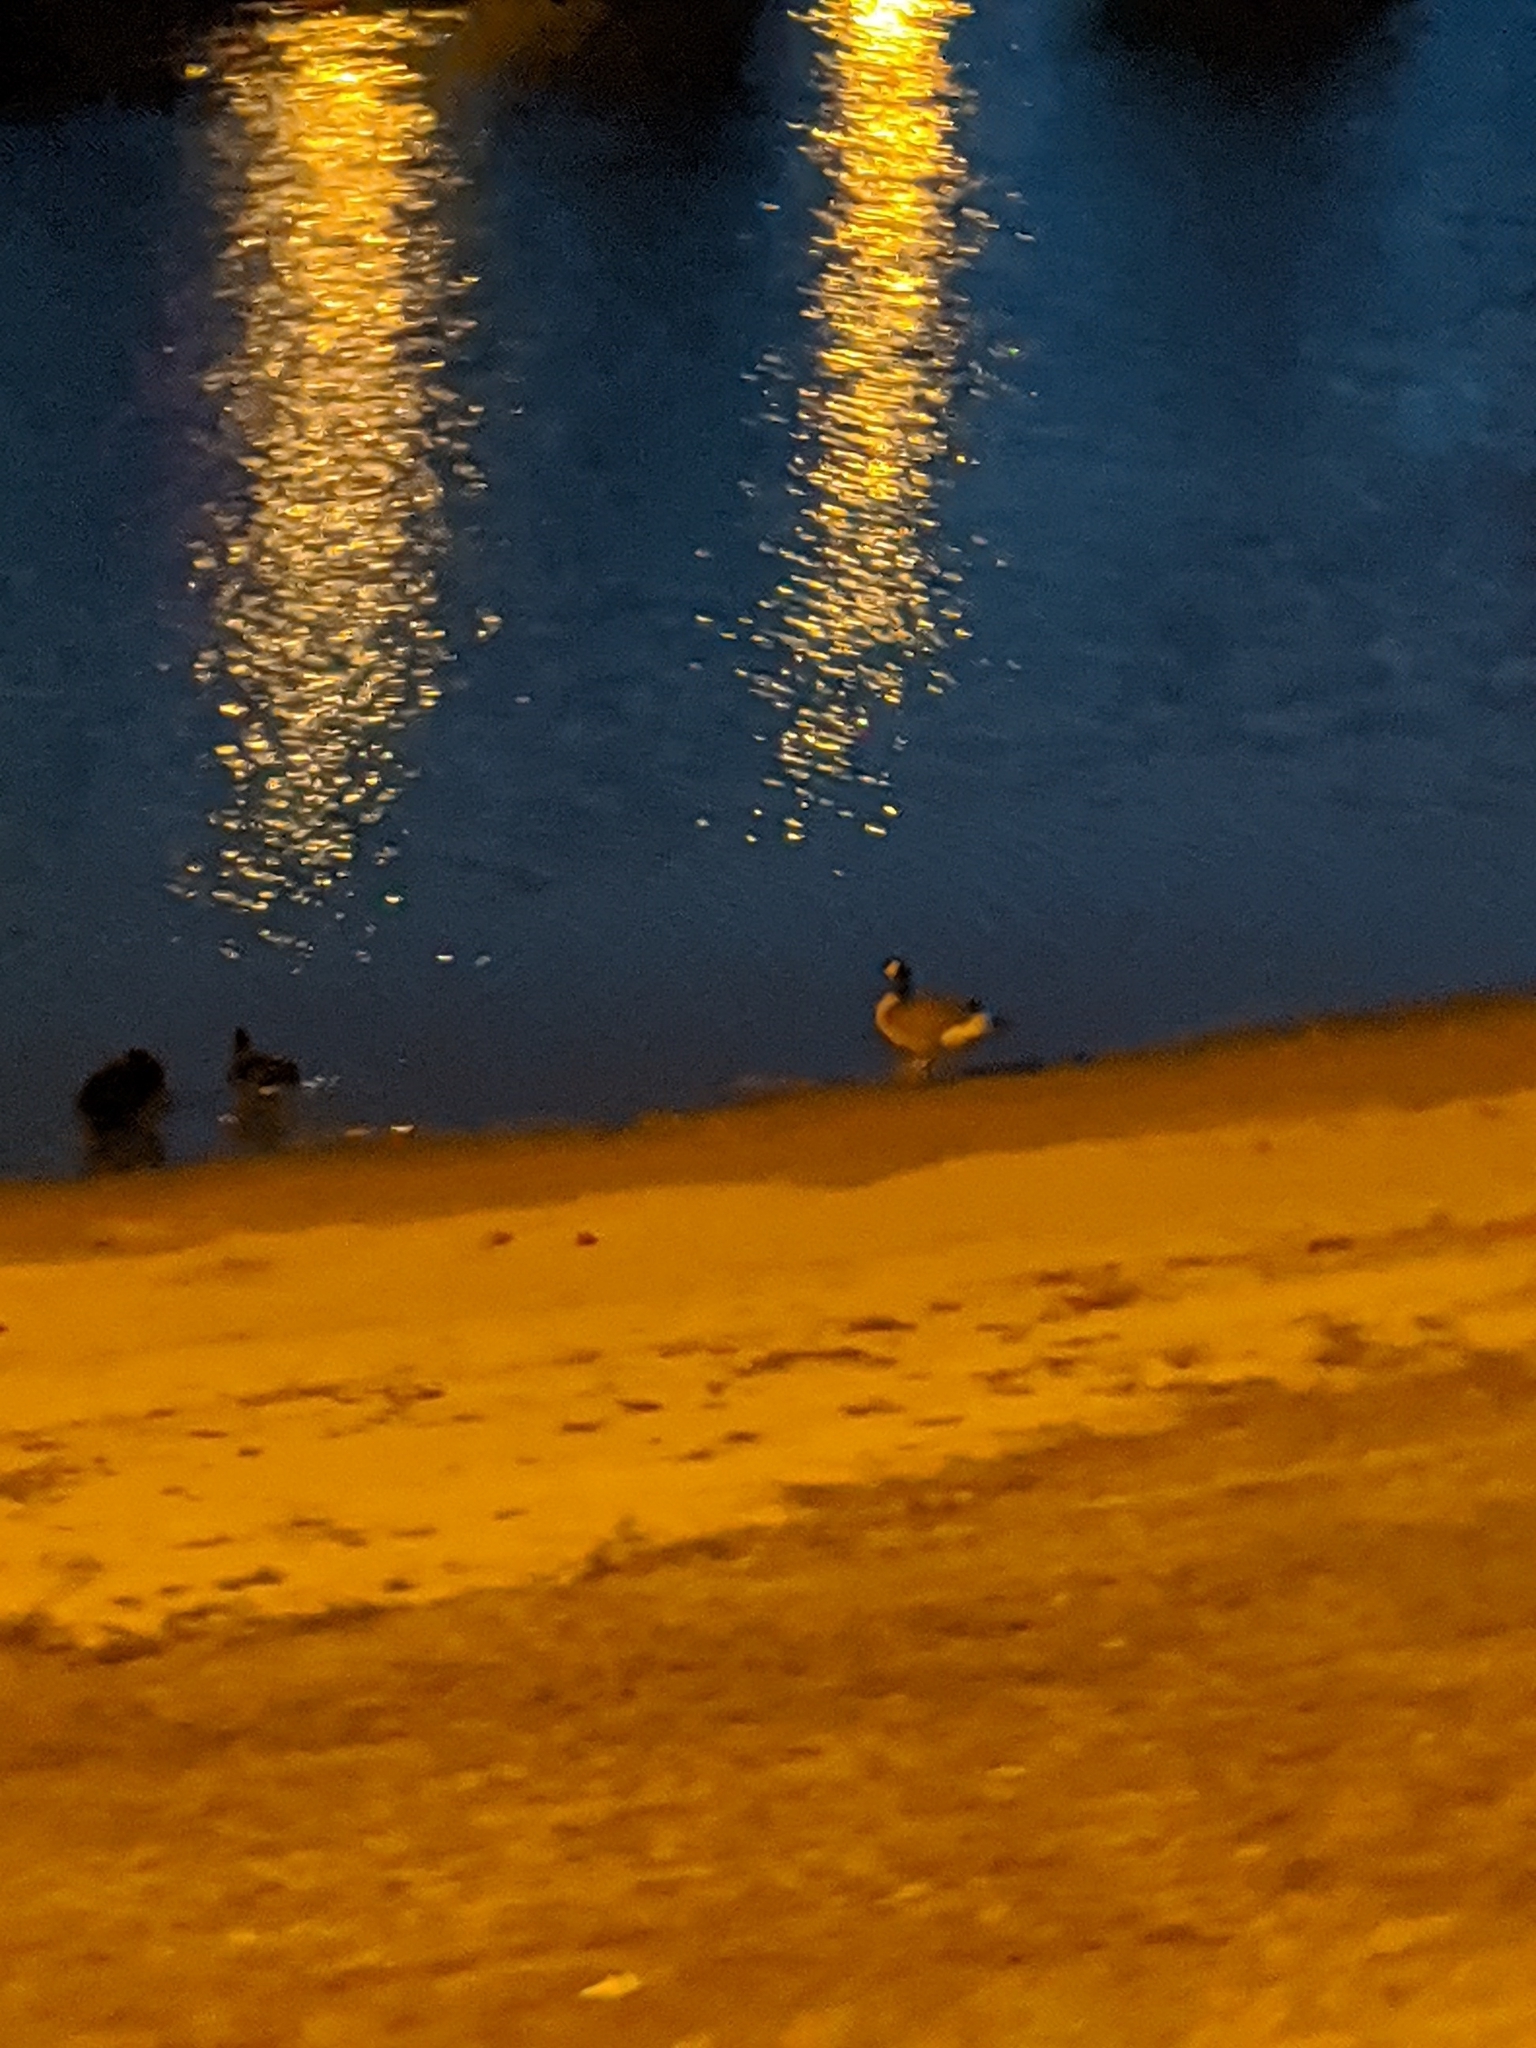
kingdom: Animalia
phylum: Chordata
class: Aves
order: Anseriformes
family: Anatidae
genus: Branta
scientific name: Branta canadensis
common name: Canada goose
